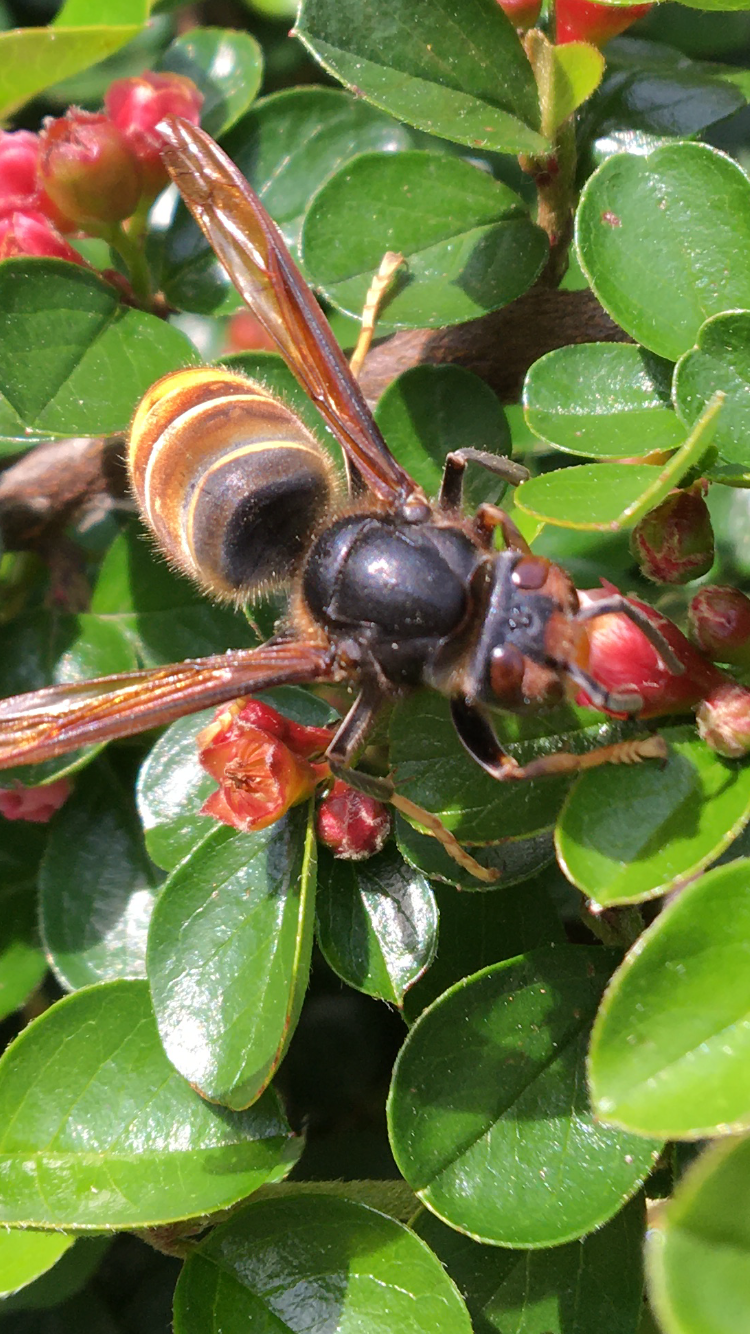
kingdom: Animalia
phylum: Arthropoda
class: Insecta
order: Hymenoptera
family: Vespidae
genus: Vespa
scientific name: Vespa velutina
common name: Asian hornet
